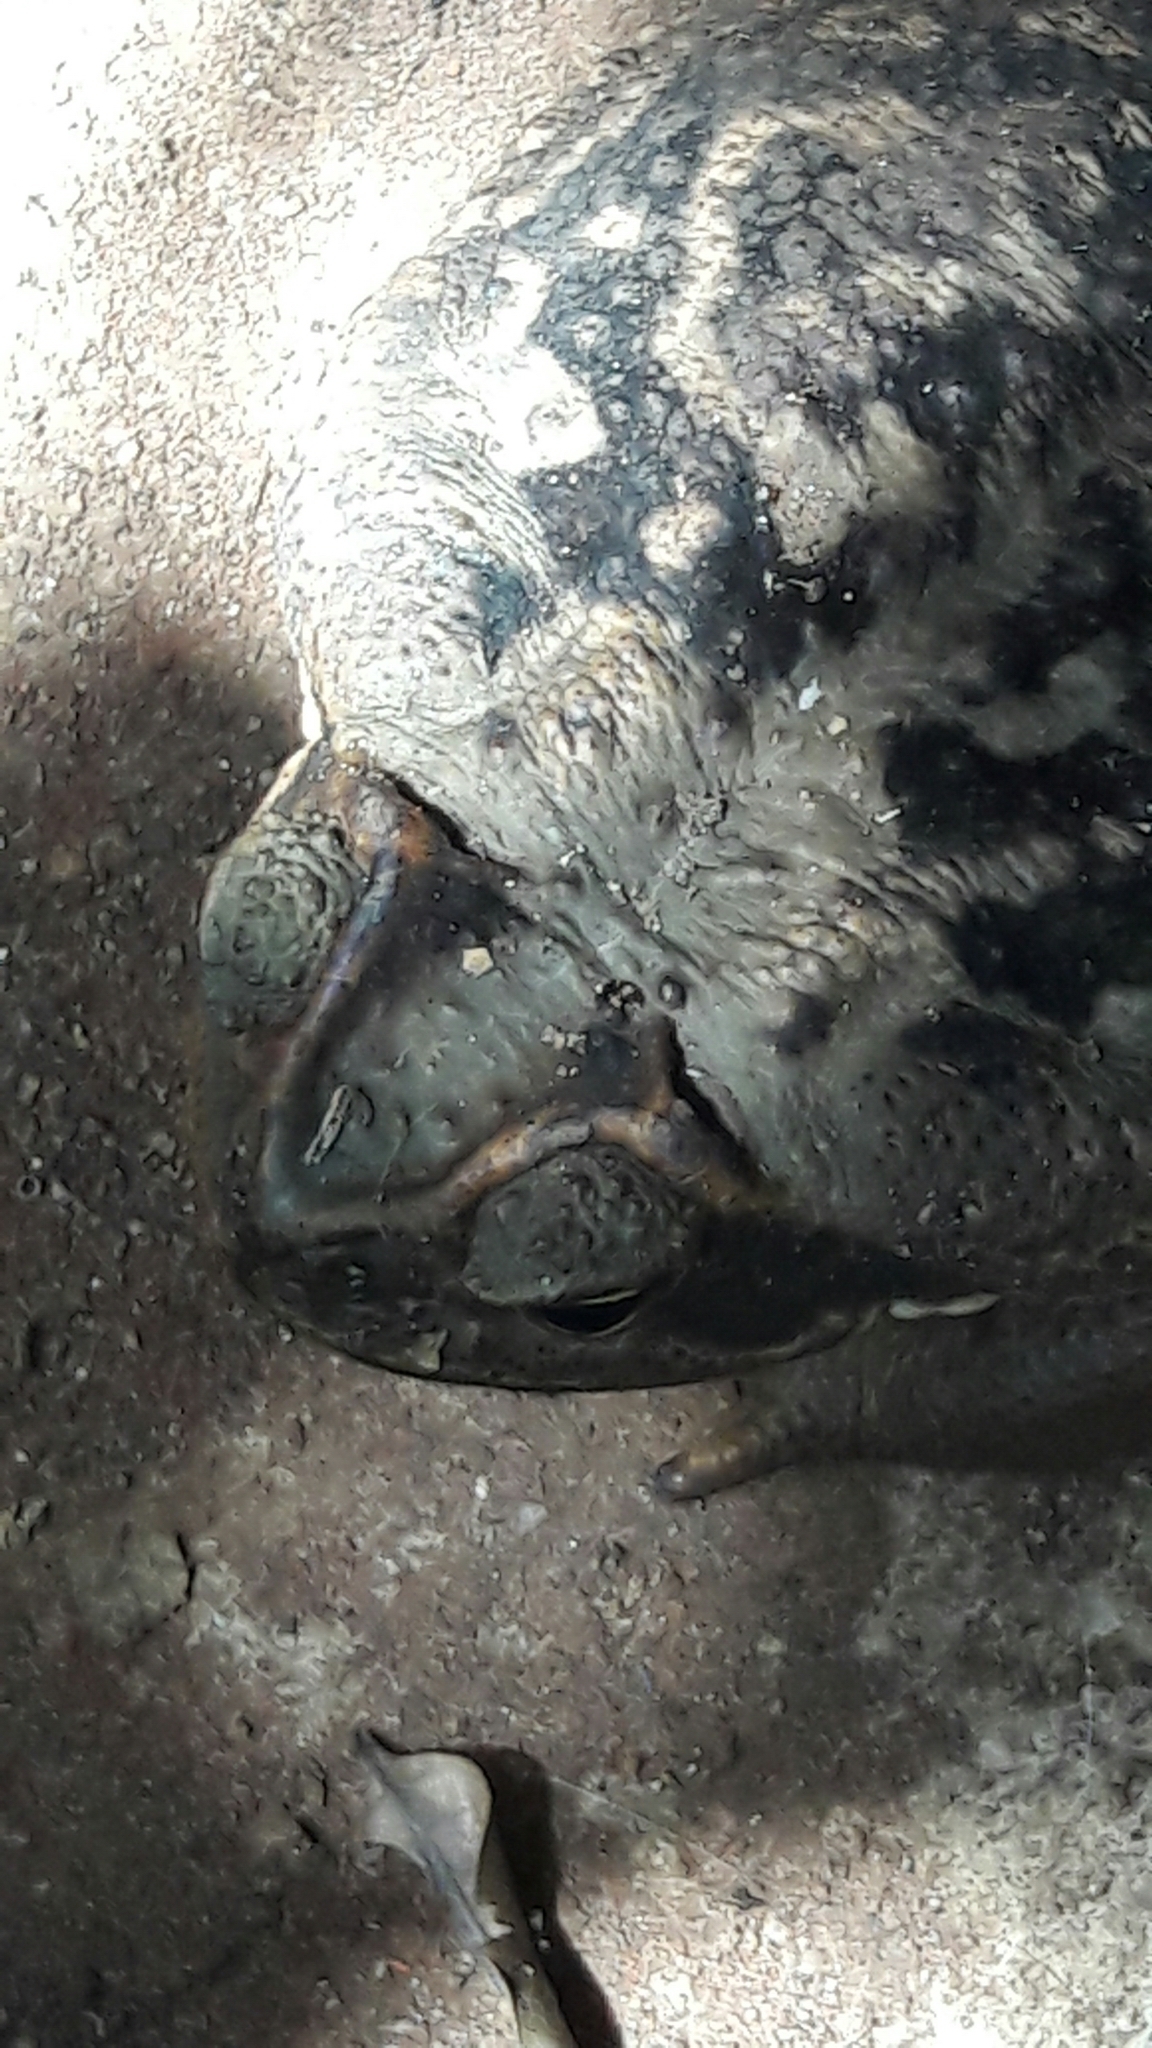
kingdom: Animalia
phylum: Chordata
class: Amphibia
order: Anura
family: Bufonidae
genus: Rhinella
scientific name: Rhinella diptycha
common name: Cope's toad
